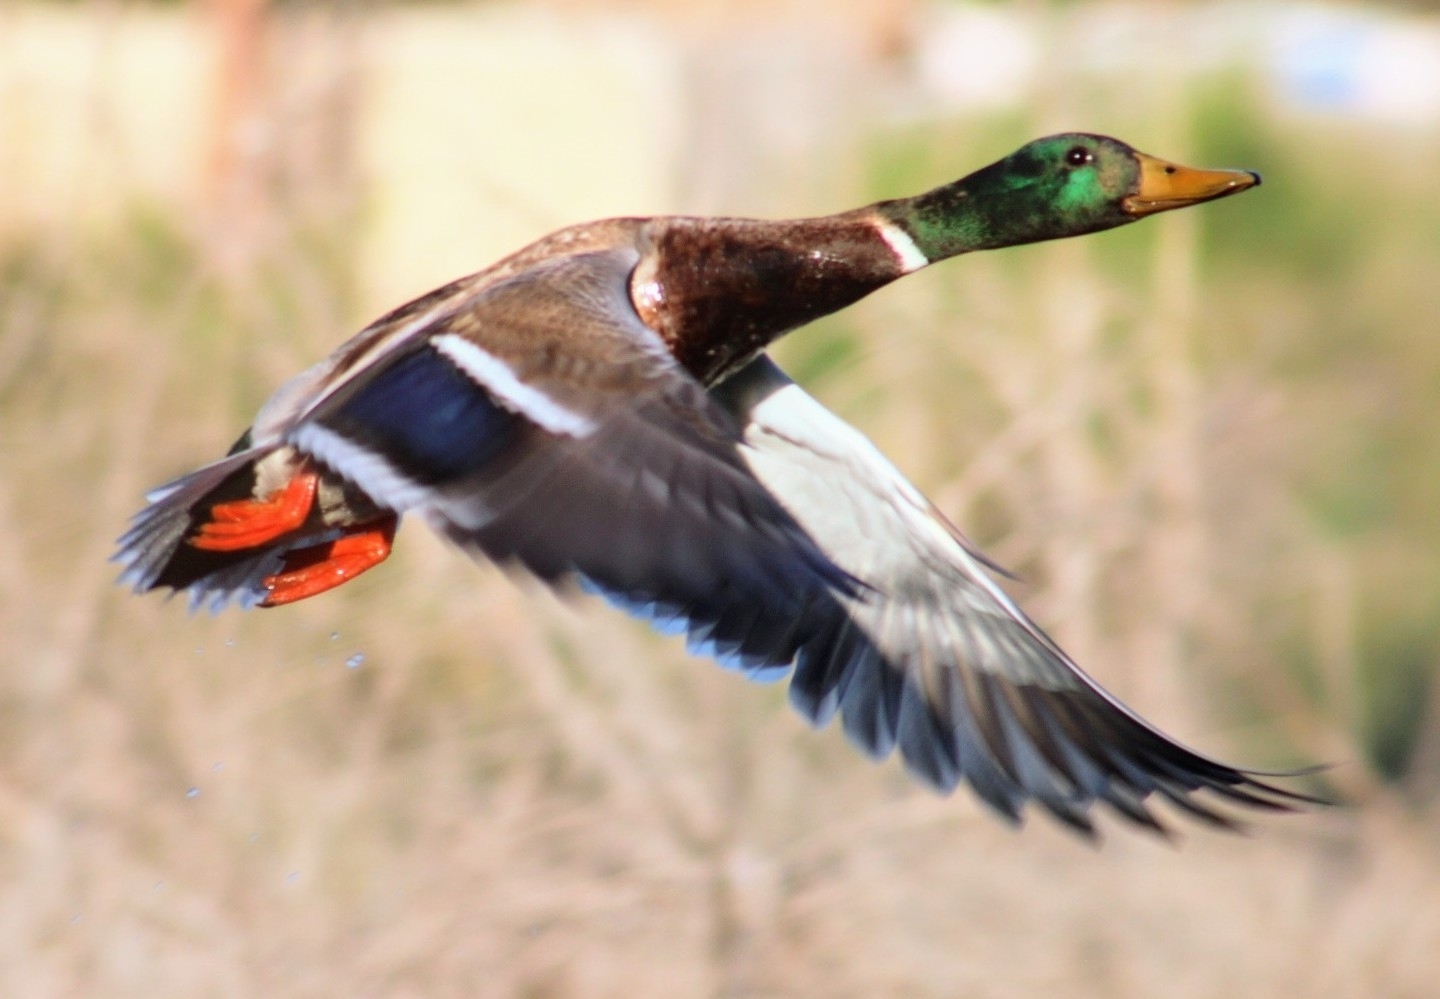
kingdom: Animalia
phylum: Chordata
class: Aves
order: Anseriformes
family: Anatidae
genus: Anas
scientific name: Anas platyrhynchos
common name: Mallard
